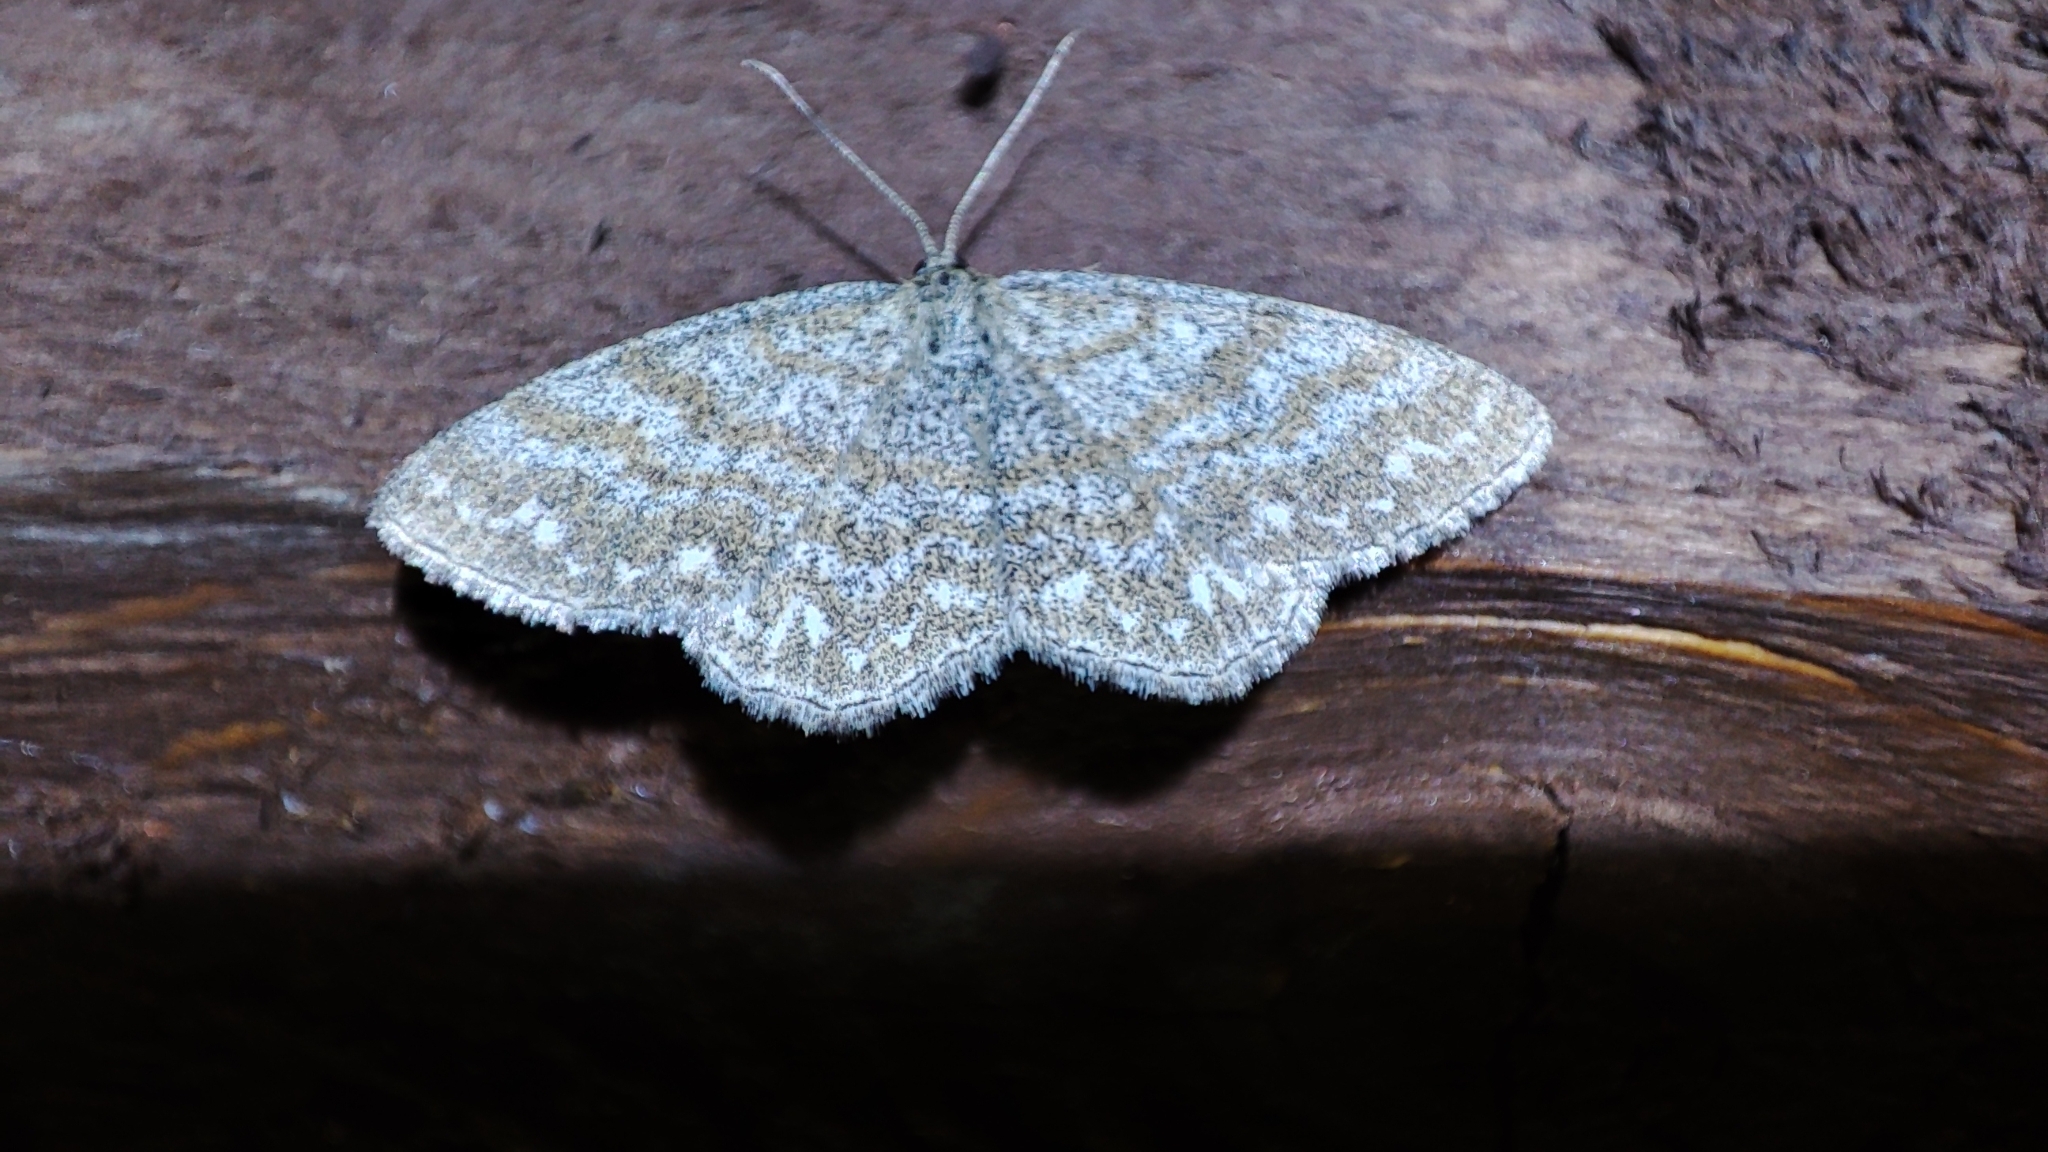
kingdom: Animalia
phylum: Arthropoda
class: Insecta
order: Lepidoptera
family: Geometridae
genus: Scopula
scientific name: Scopula immorata
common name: Lewes wave
